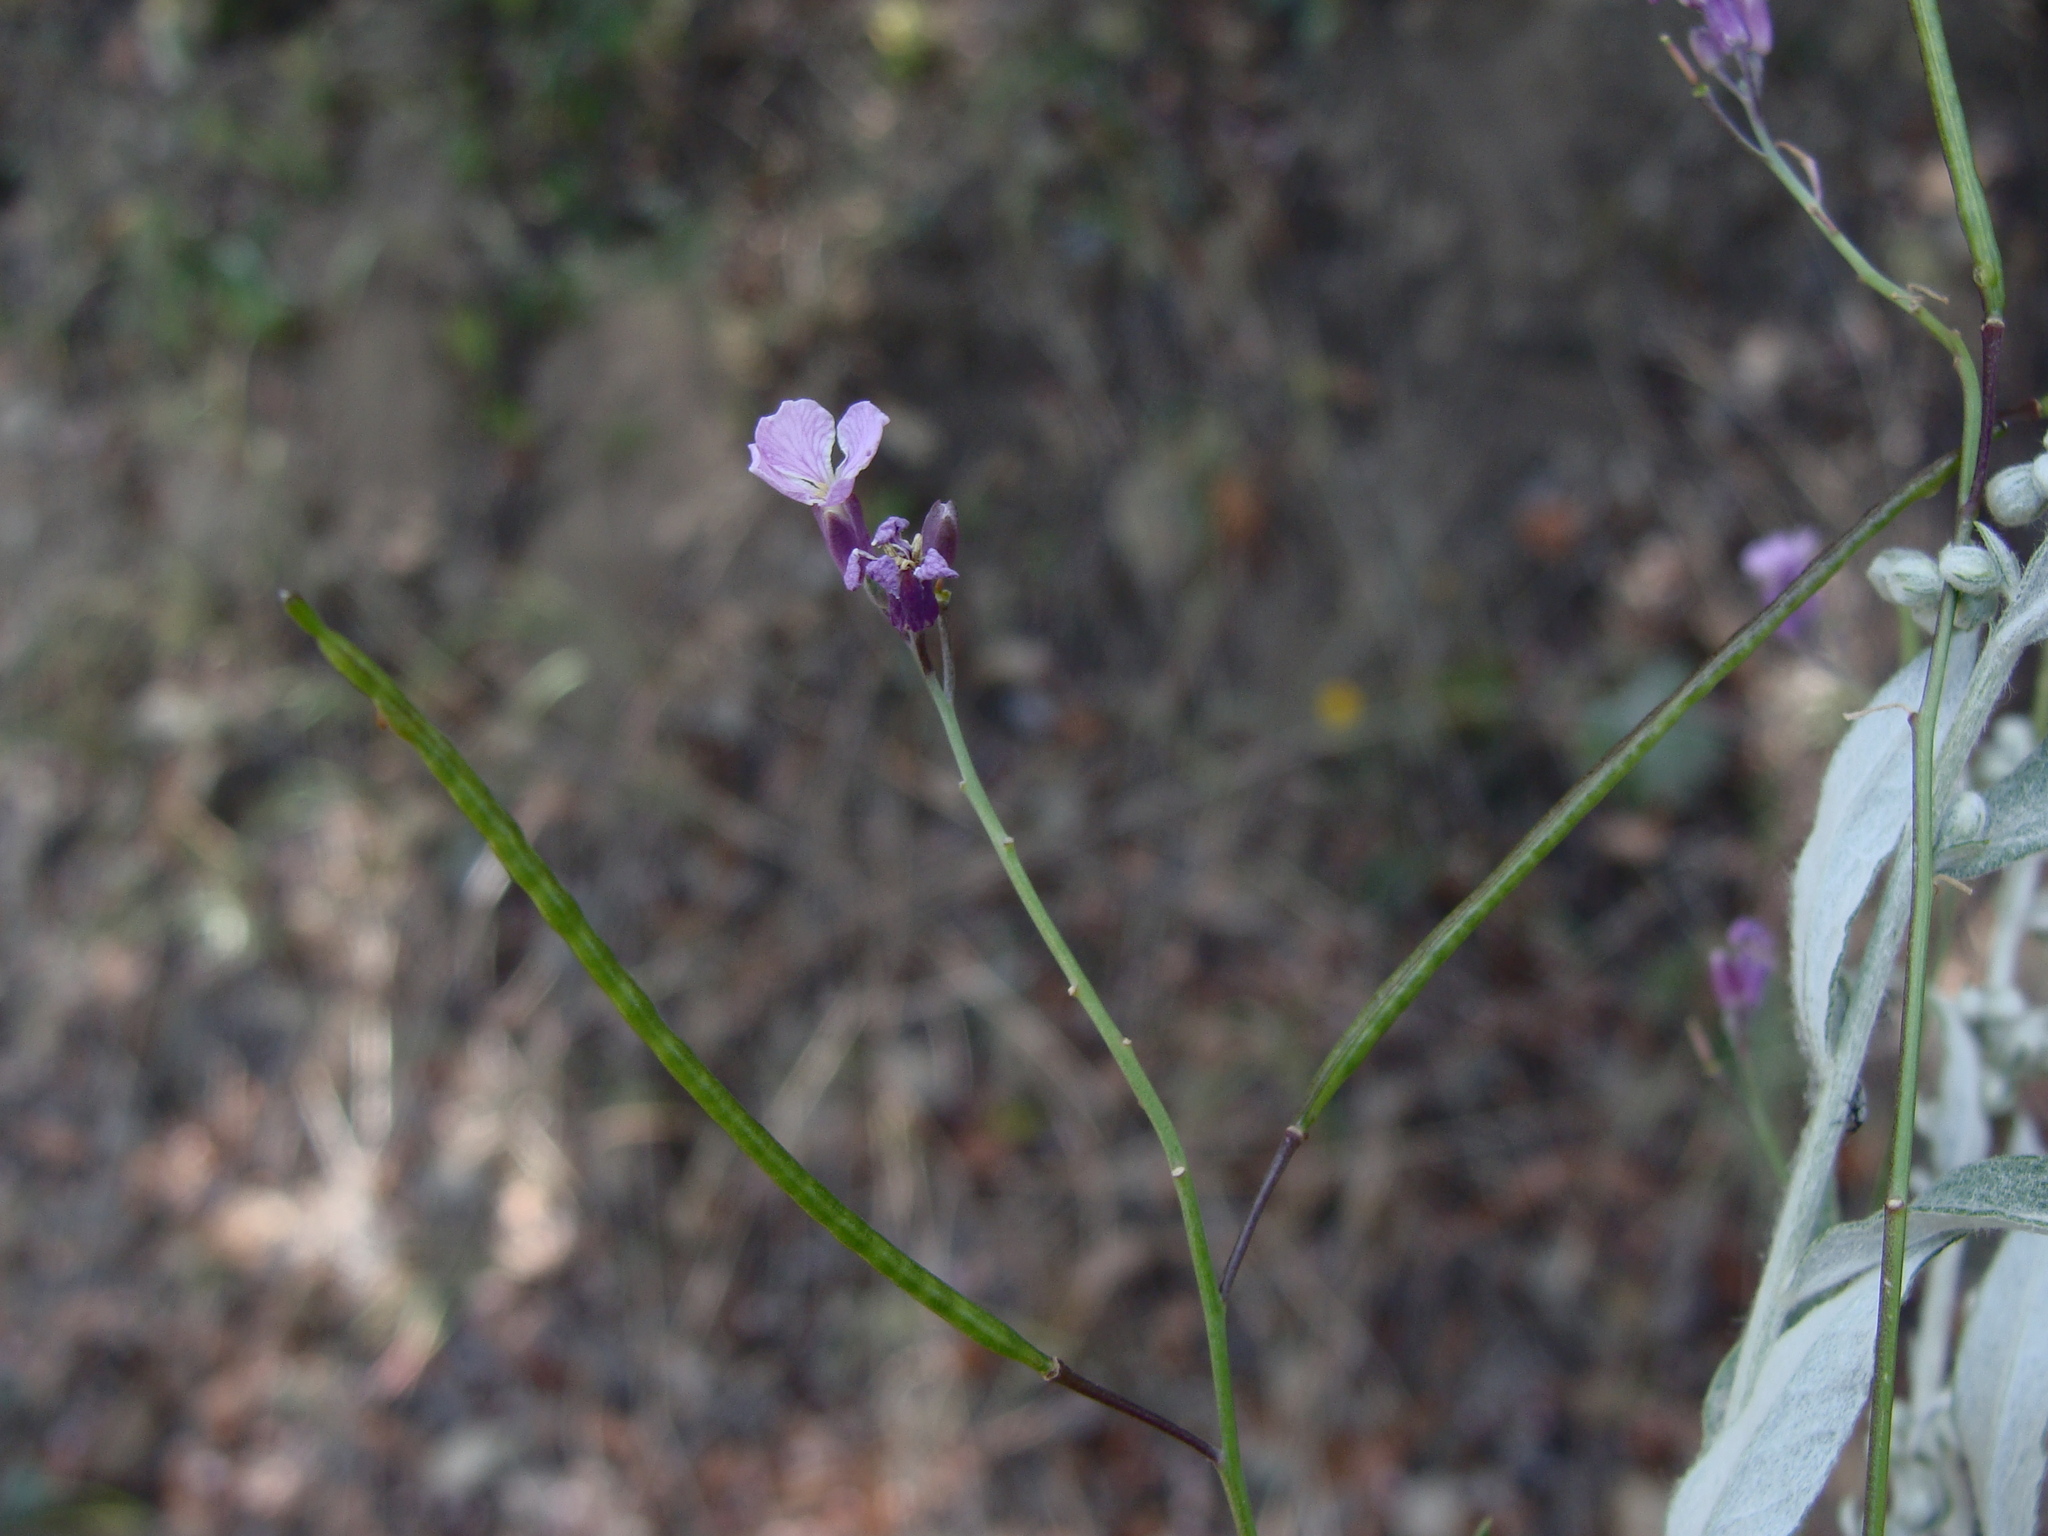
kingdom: Plantae
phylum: Tracheophyta
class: Magnoliopsida
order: Brassicales
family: Brassicaceae
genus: Hesperidanthus
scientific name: Hesperidanthus linearifolius
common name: Slim-leaf plains mustard
